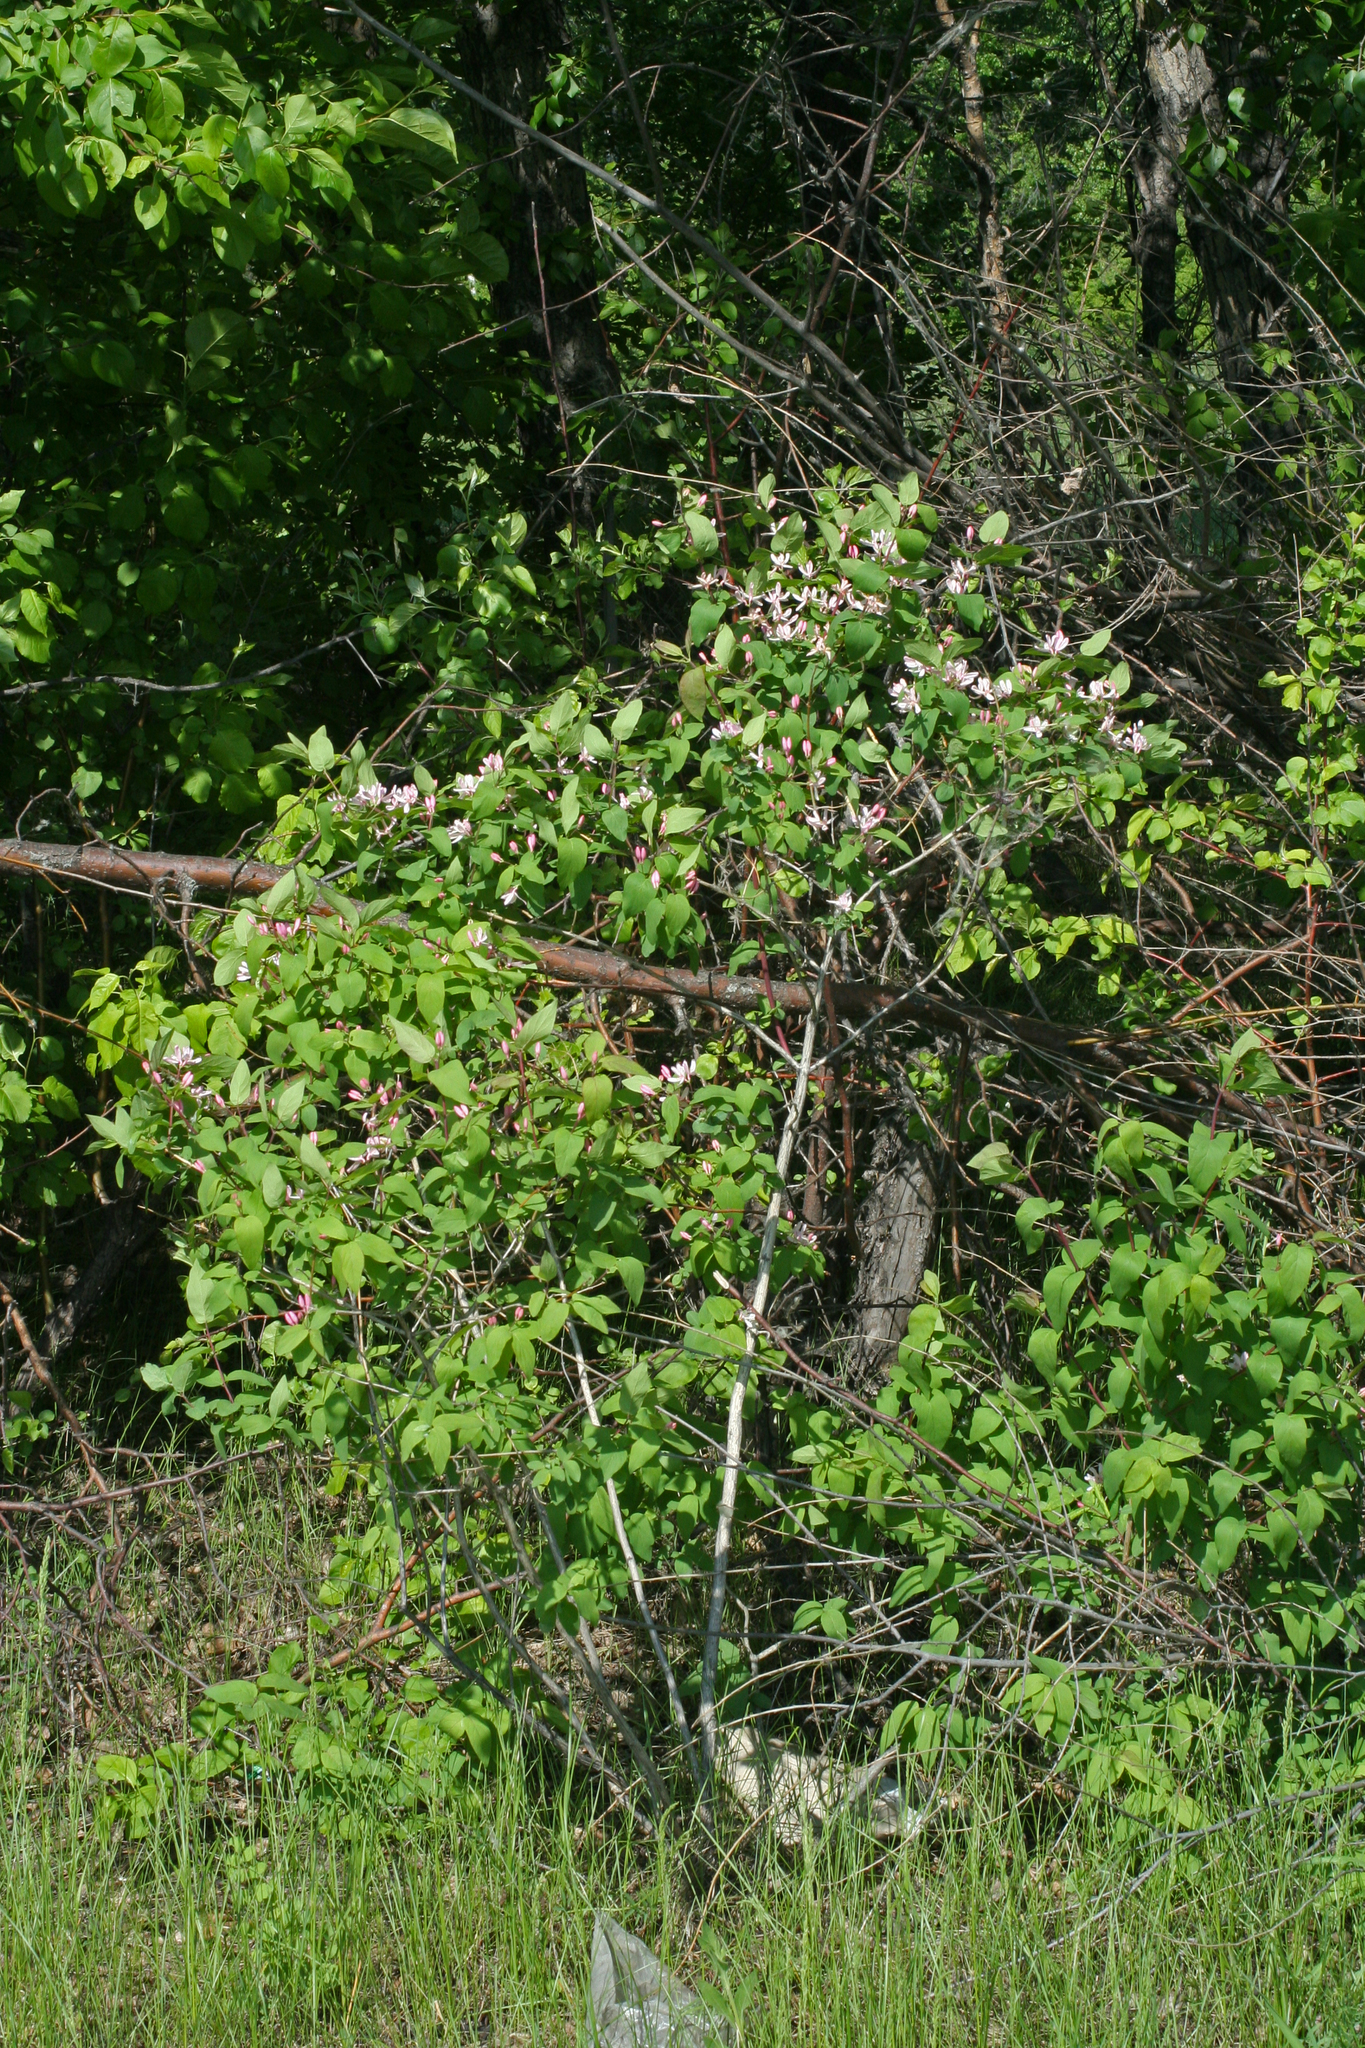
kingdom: Plantae
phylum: Tracheophyta
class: Magnoliopsida
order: Dipsacales
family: Caprifoliaceae
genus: Lonicera
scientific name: Lonicera tatarica
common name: Tatarian honeysuckle
